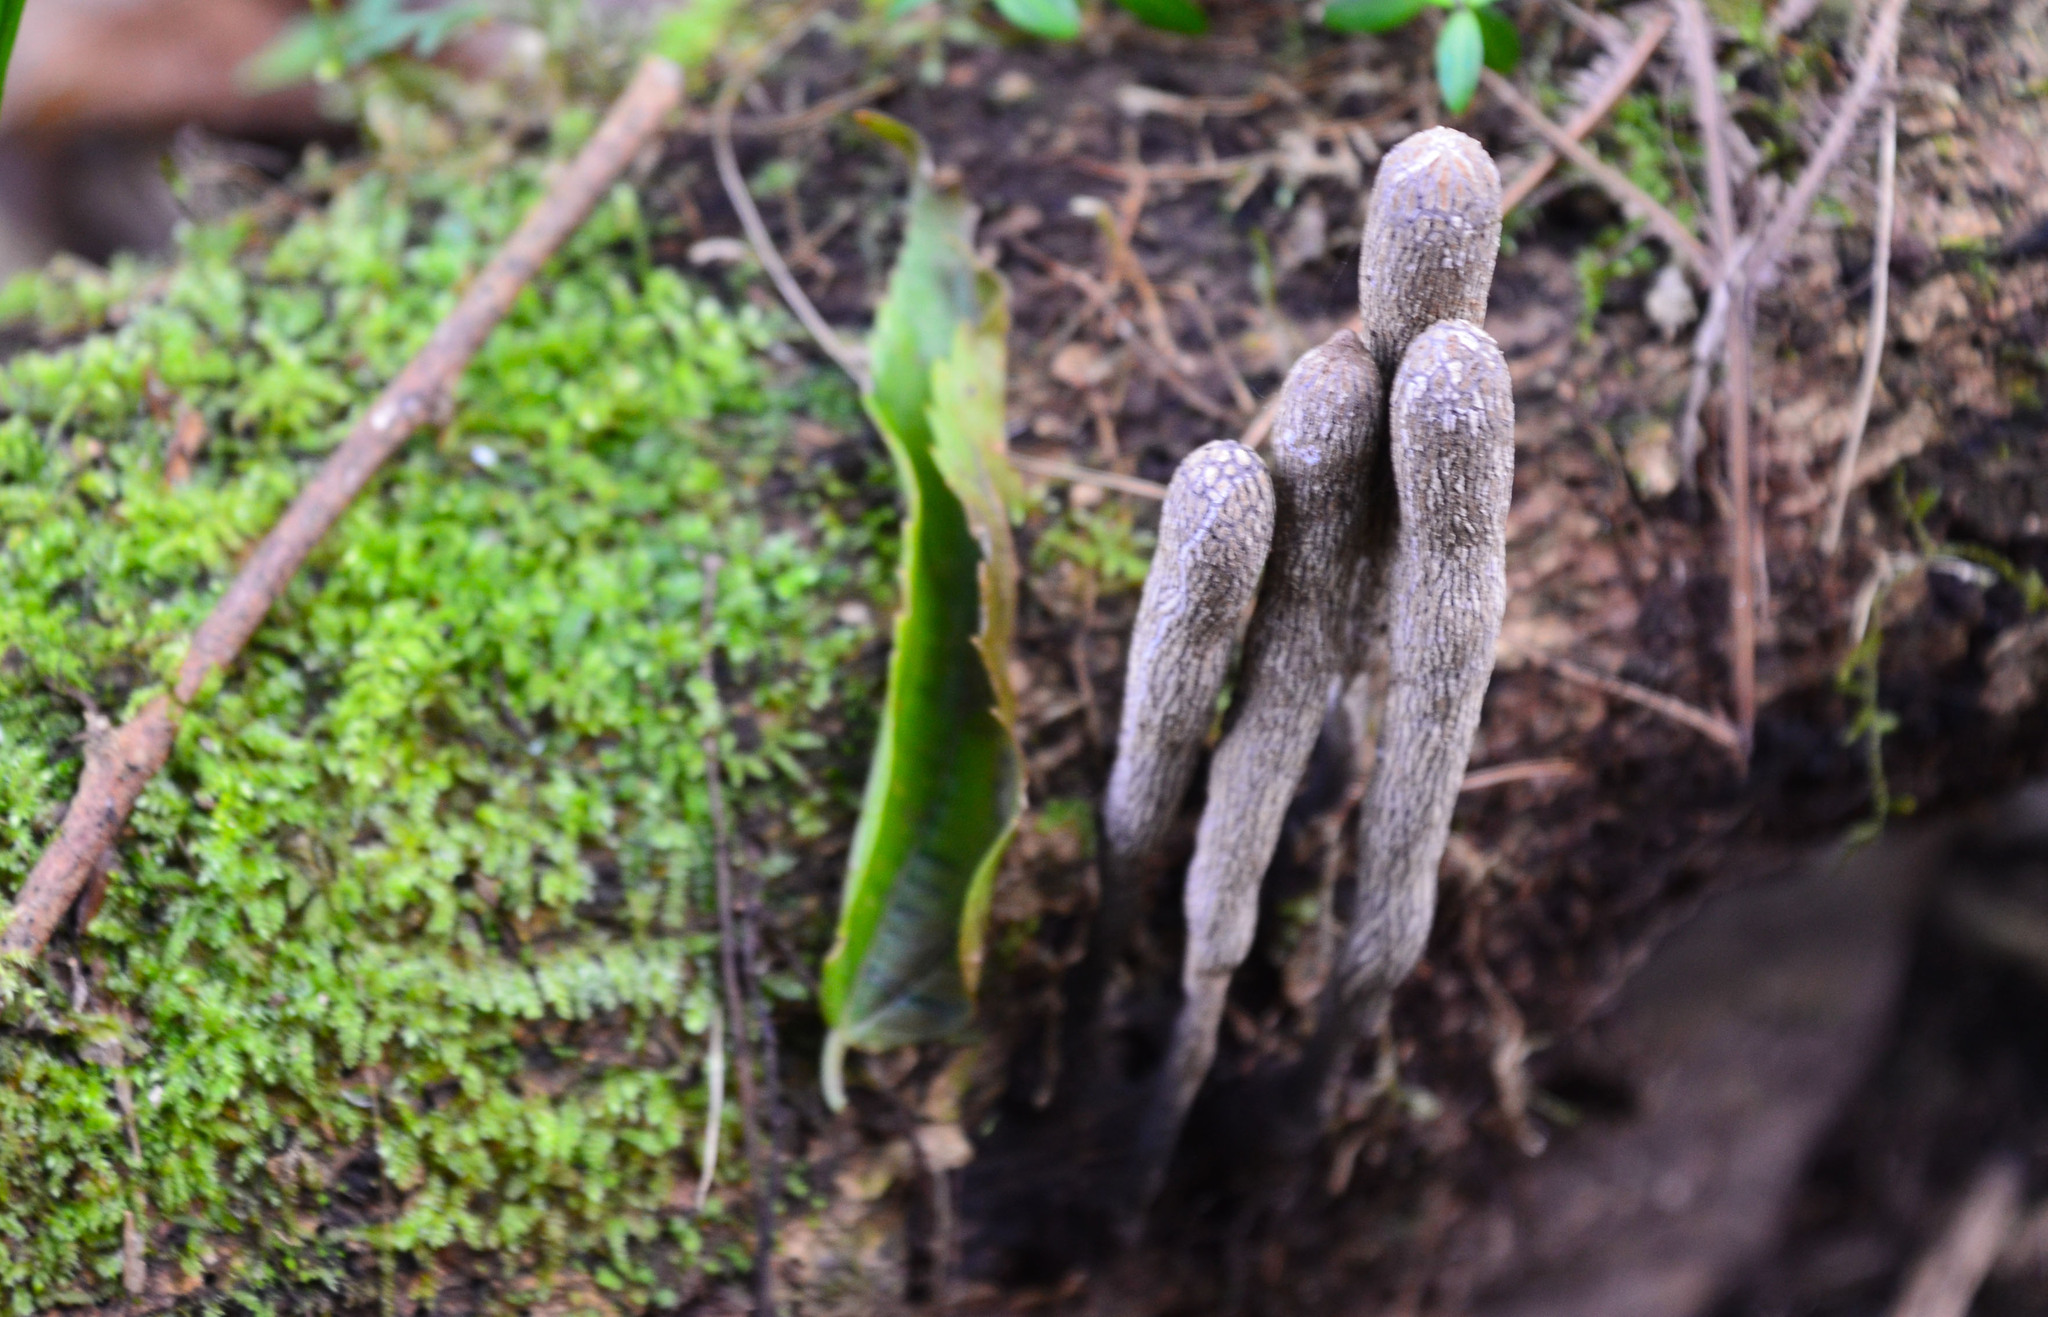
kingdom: Fungi
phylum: Ascomycota
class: Sordariomycetes
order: Xylariales
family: Xylariaceae
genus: Xylaria
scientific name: Xylaria polymorpha
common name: Dead man's fingers
